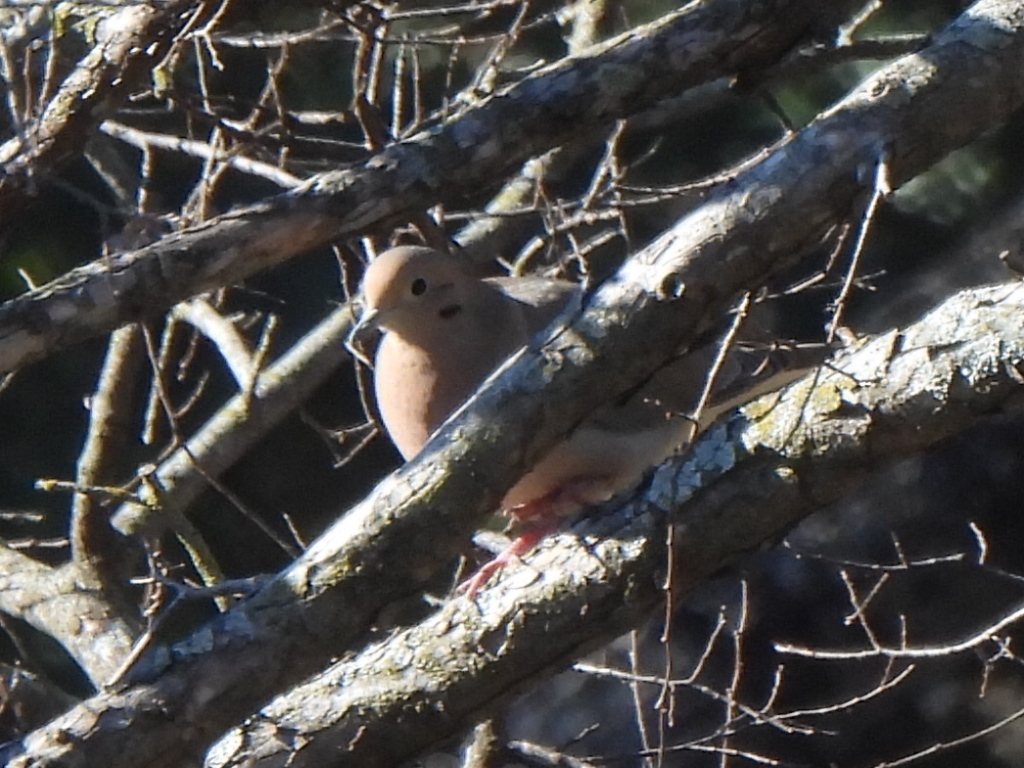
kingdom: Animalia
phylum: Chordata
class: Aves
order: Columbiformes
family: Columbidae
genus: Zenaida
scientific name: Zenaida macroura
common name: Mourning dove
